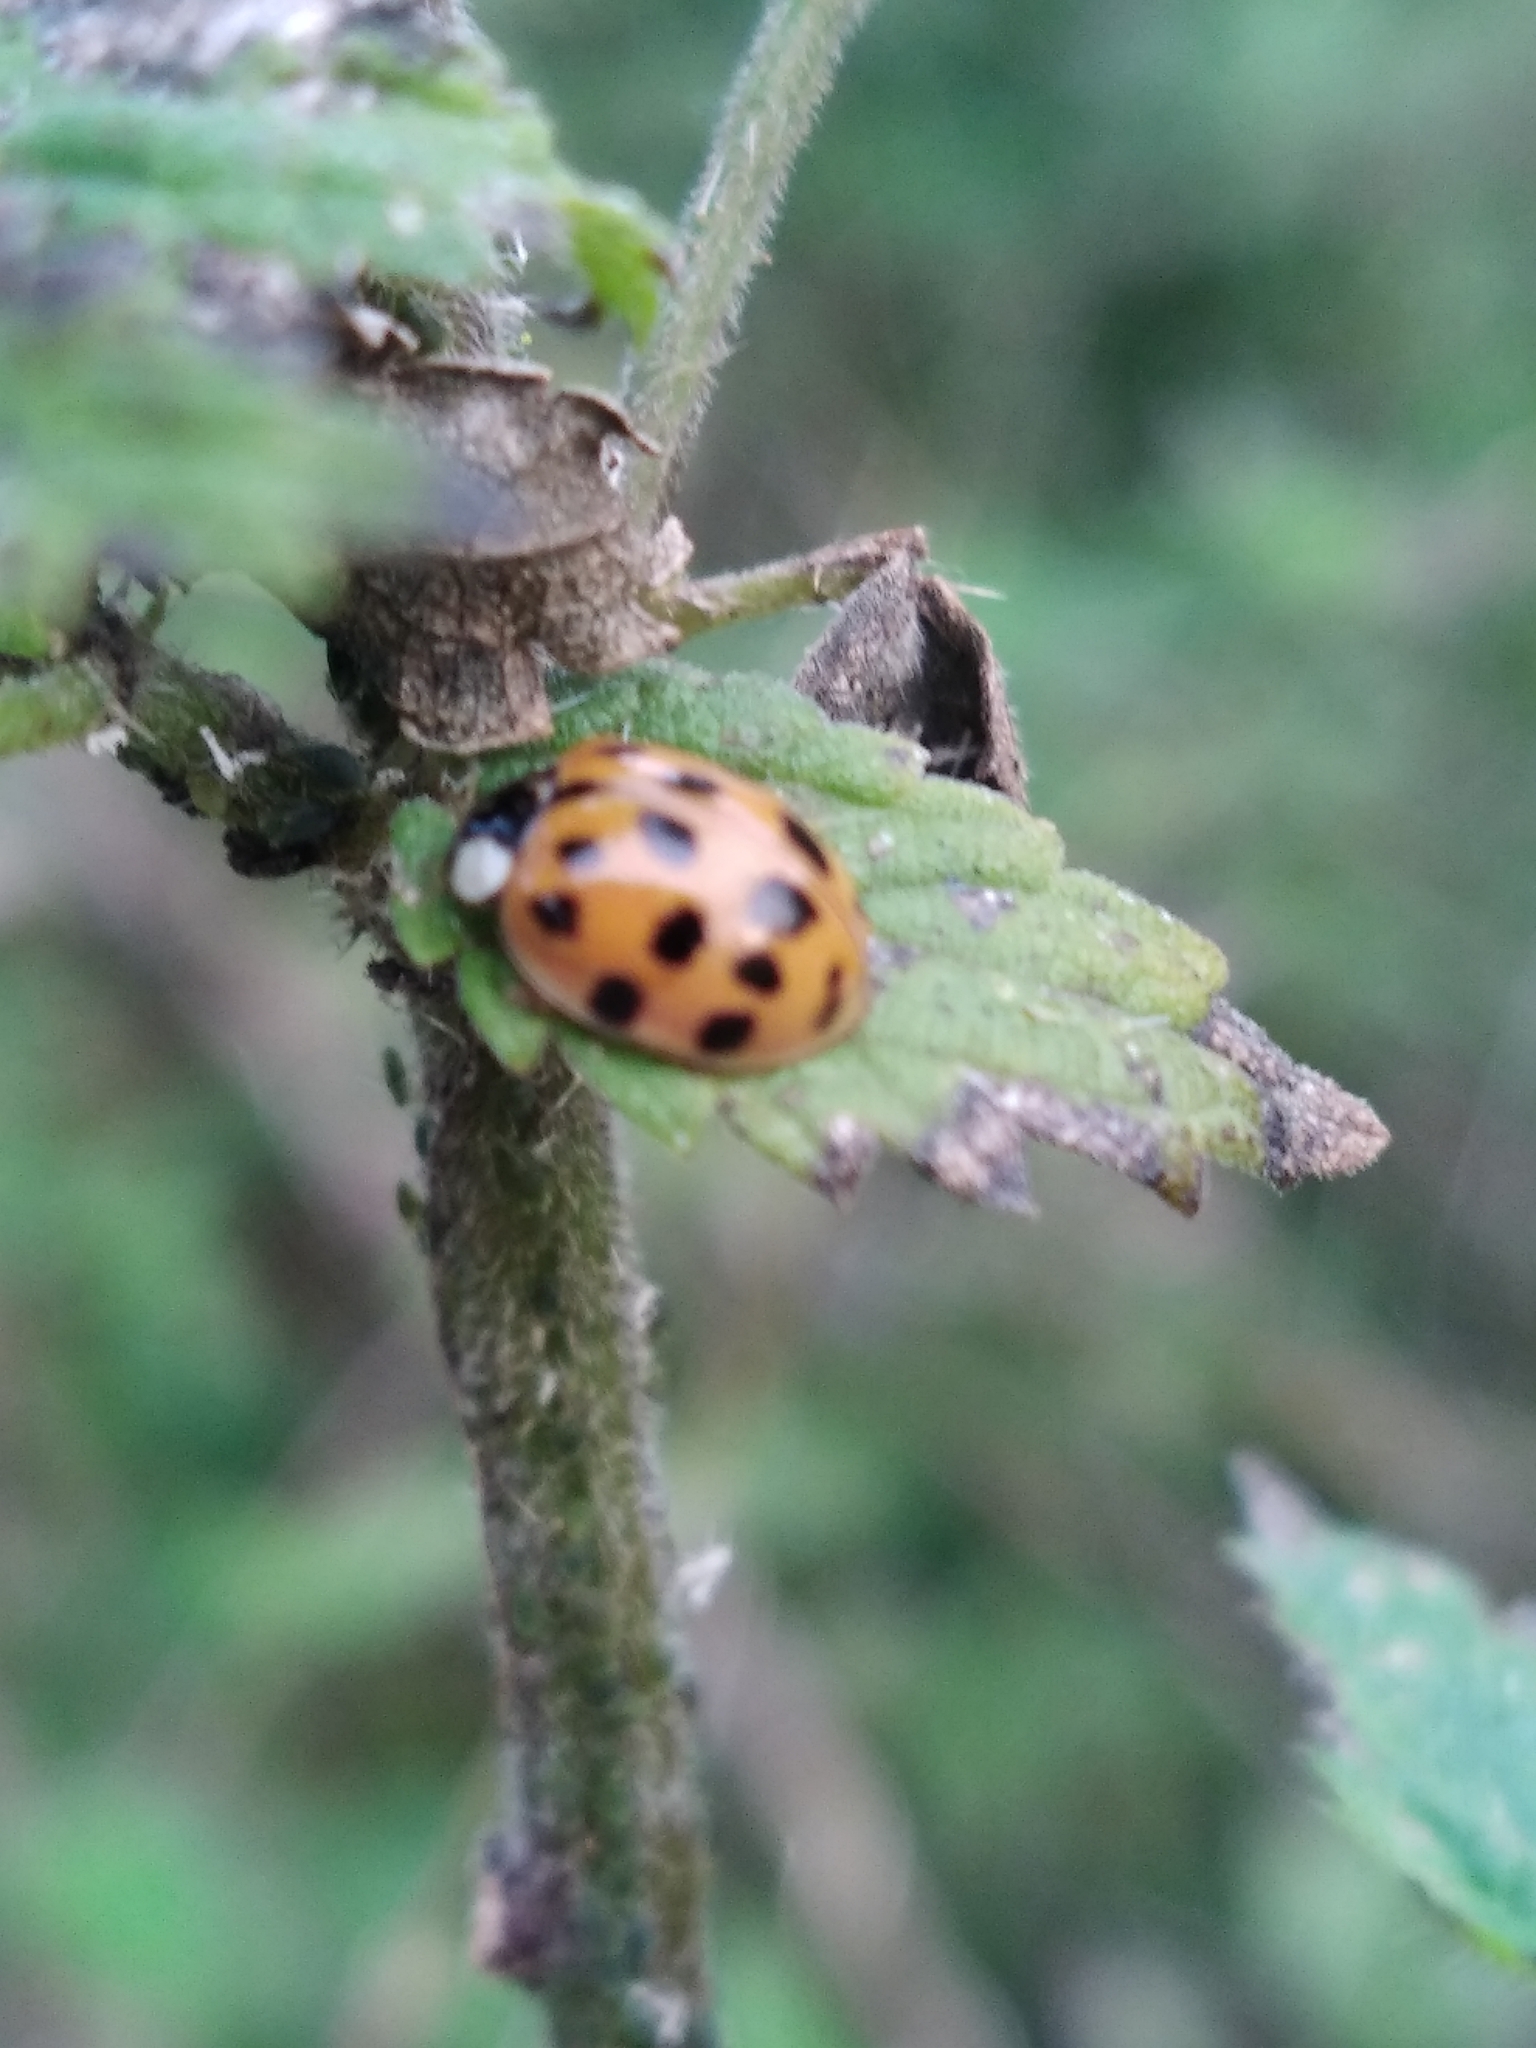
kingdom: Animalia
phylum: Arthropoda
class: Insecta
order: Coleoptera
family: Coccinellidae
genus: Harmonia
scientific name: Harmonia axyridis
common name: Harlequin ladybird
